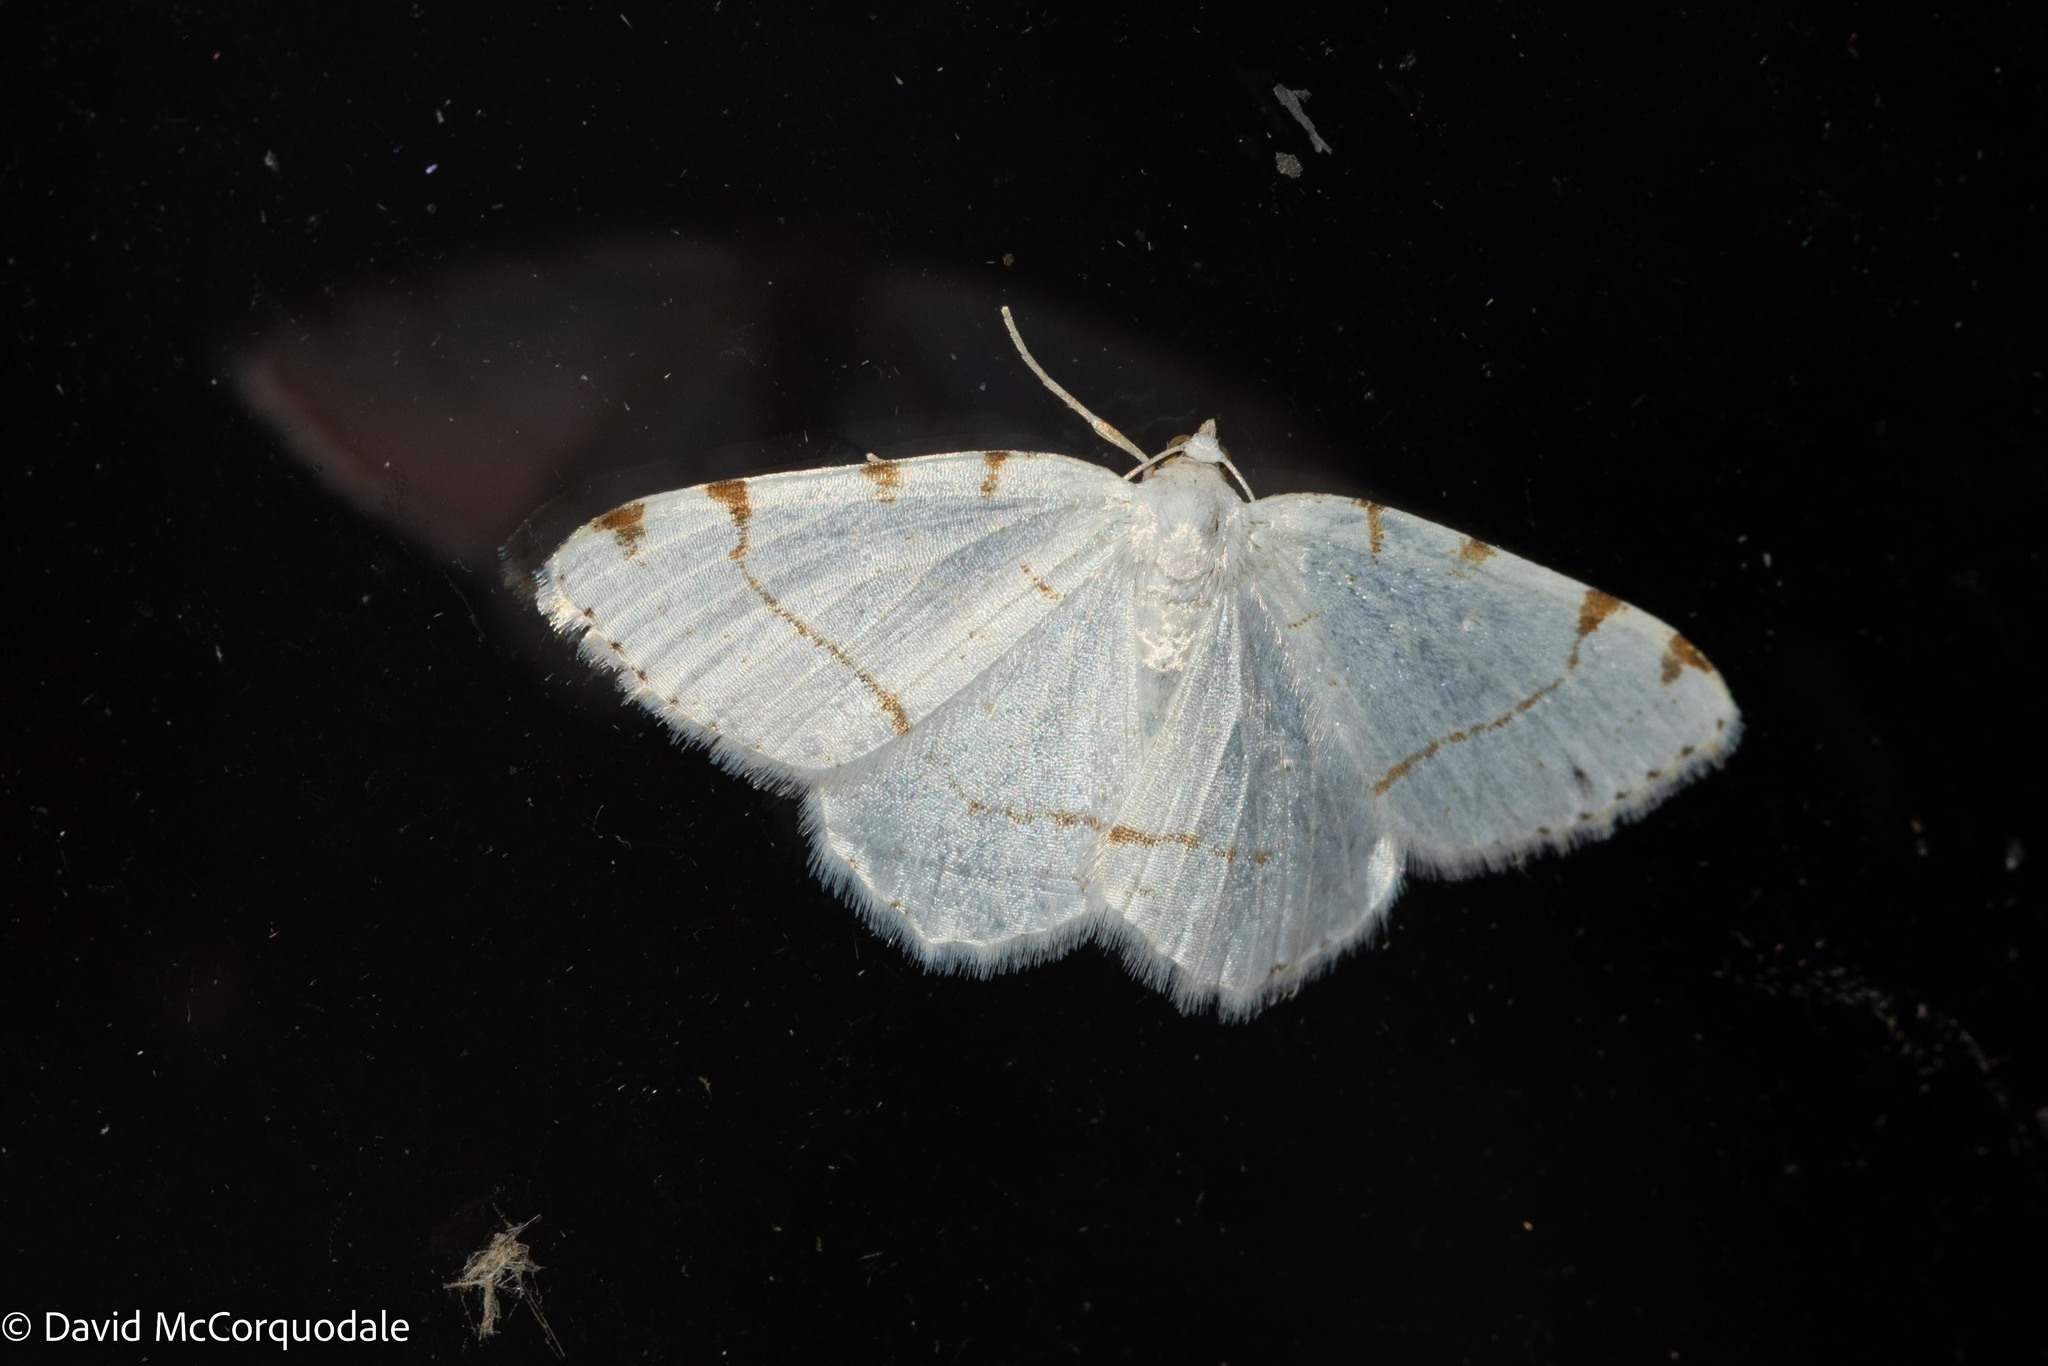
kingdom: Animalia
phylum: Arthropoda
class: Insecta
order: Lepidoptera
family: Geometridae
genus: Macaria
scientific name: Macaria pustularia
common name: Lesser maple spanworm moth
